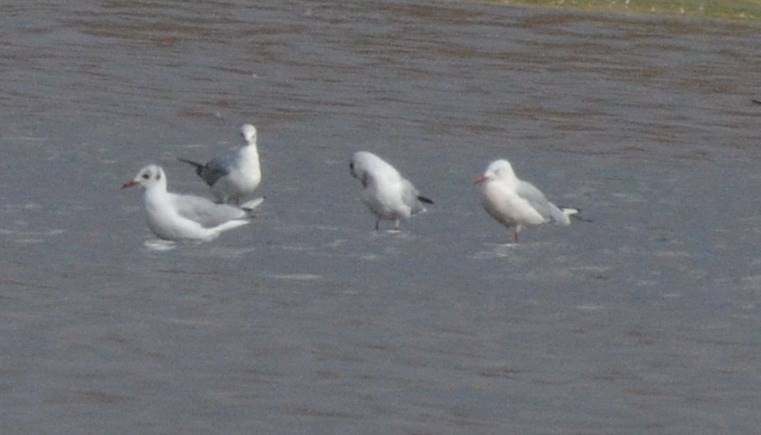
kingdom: Animalia
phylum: Chordata
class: Aves
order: Charadriiformes
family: Laridae
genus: Chroicocephalus
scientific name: Chroicocephalus ridibundus
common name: Black-headed gull
